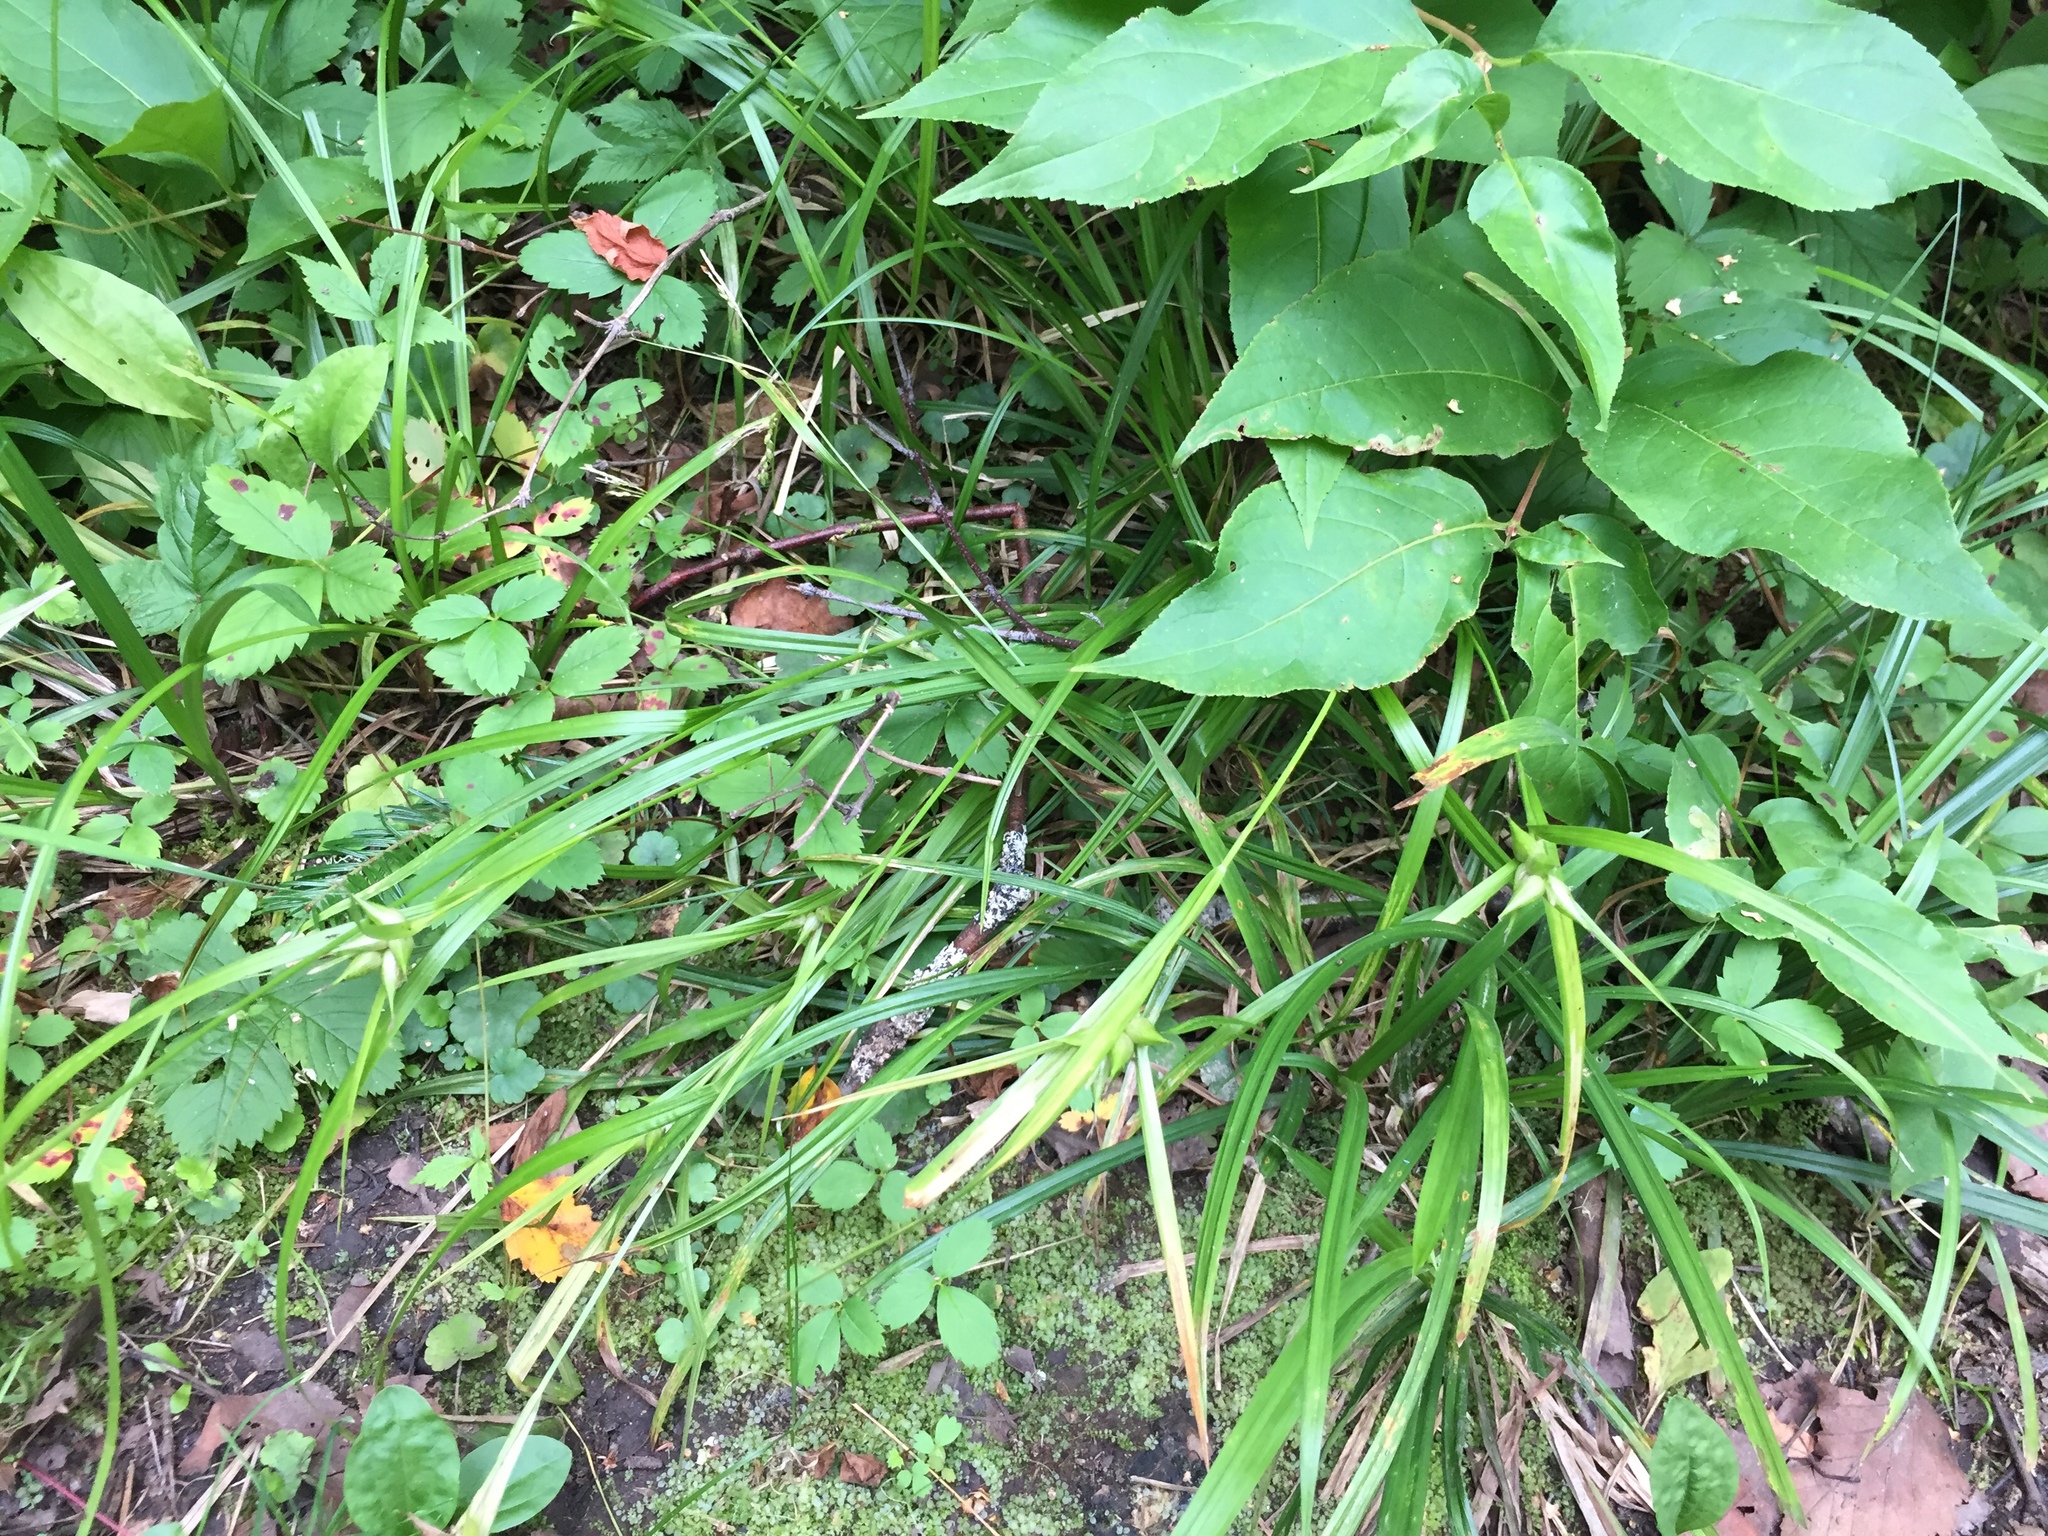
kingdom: Plantae
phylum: Tracheophyta
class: Liliopsida
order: Poales
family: Cyperaceae
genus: Carex
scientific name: Carex intumescens
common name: Greater bladder sedge
